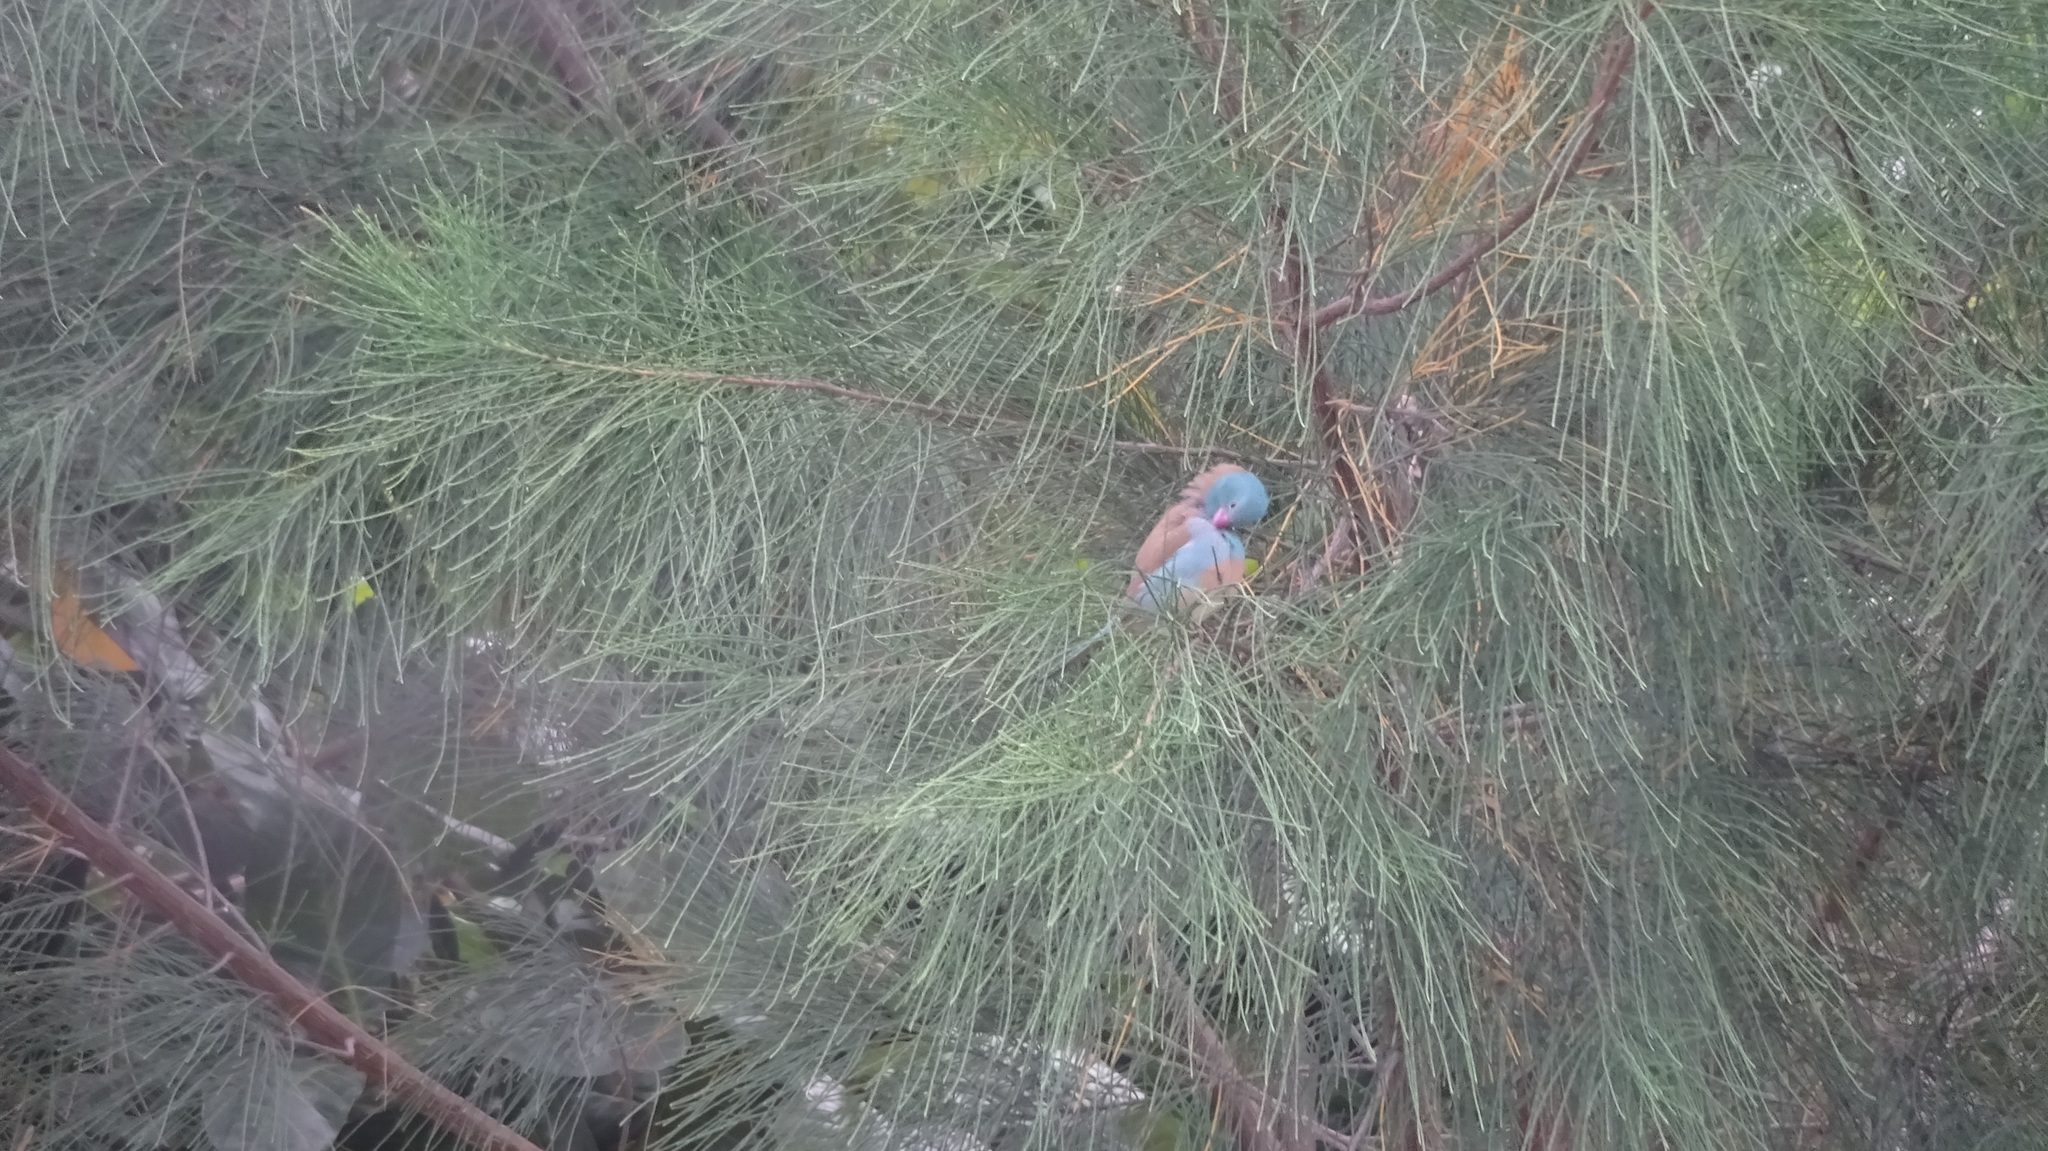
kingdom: Animalia
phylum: Chordata
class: Aves
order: Passeriformes
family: Estrildidae
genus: Uraeginthus
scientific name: Uraeginthus cyanocephalus
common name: Blue-capped cordon-bleu
